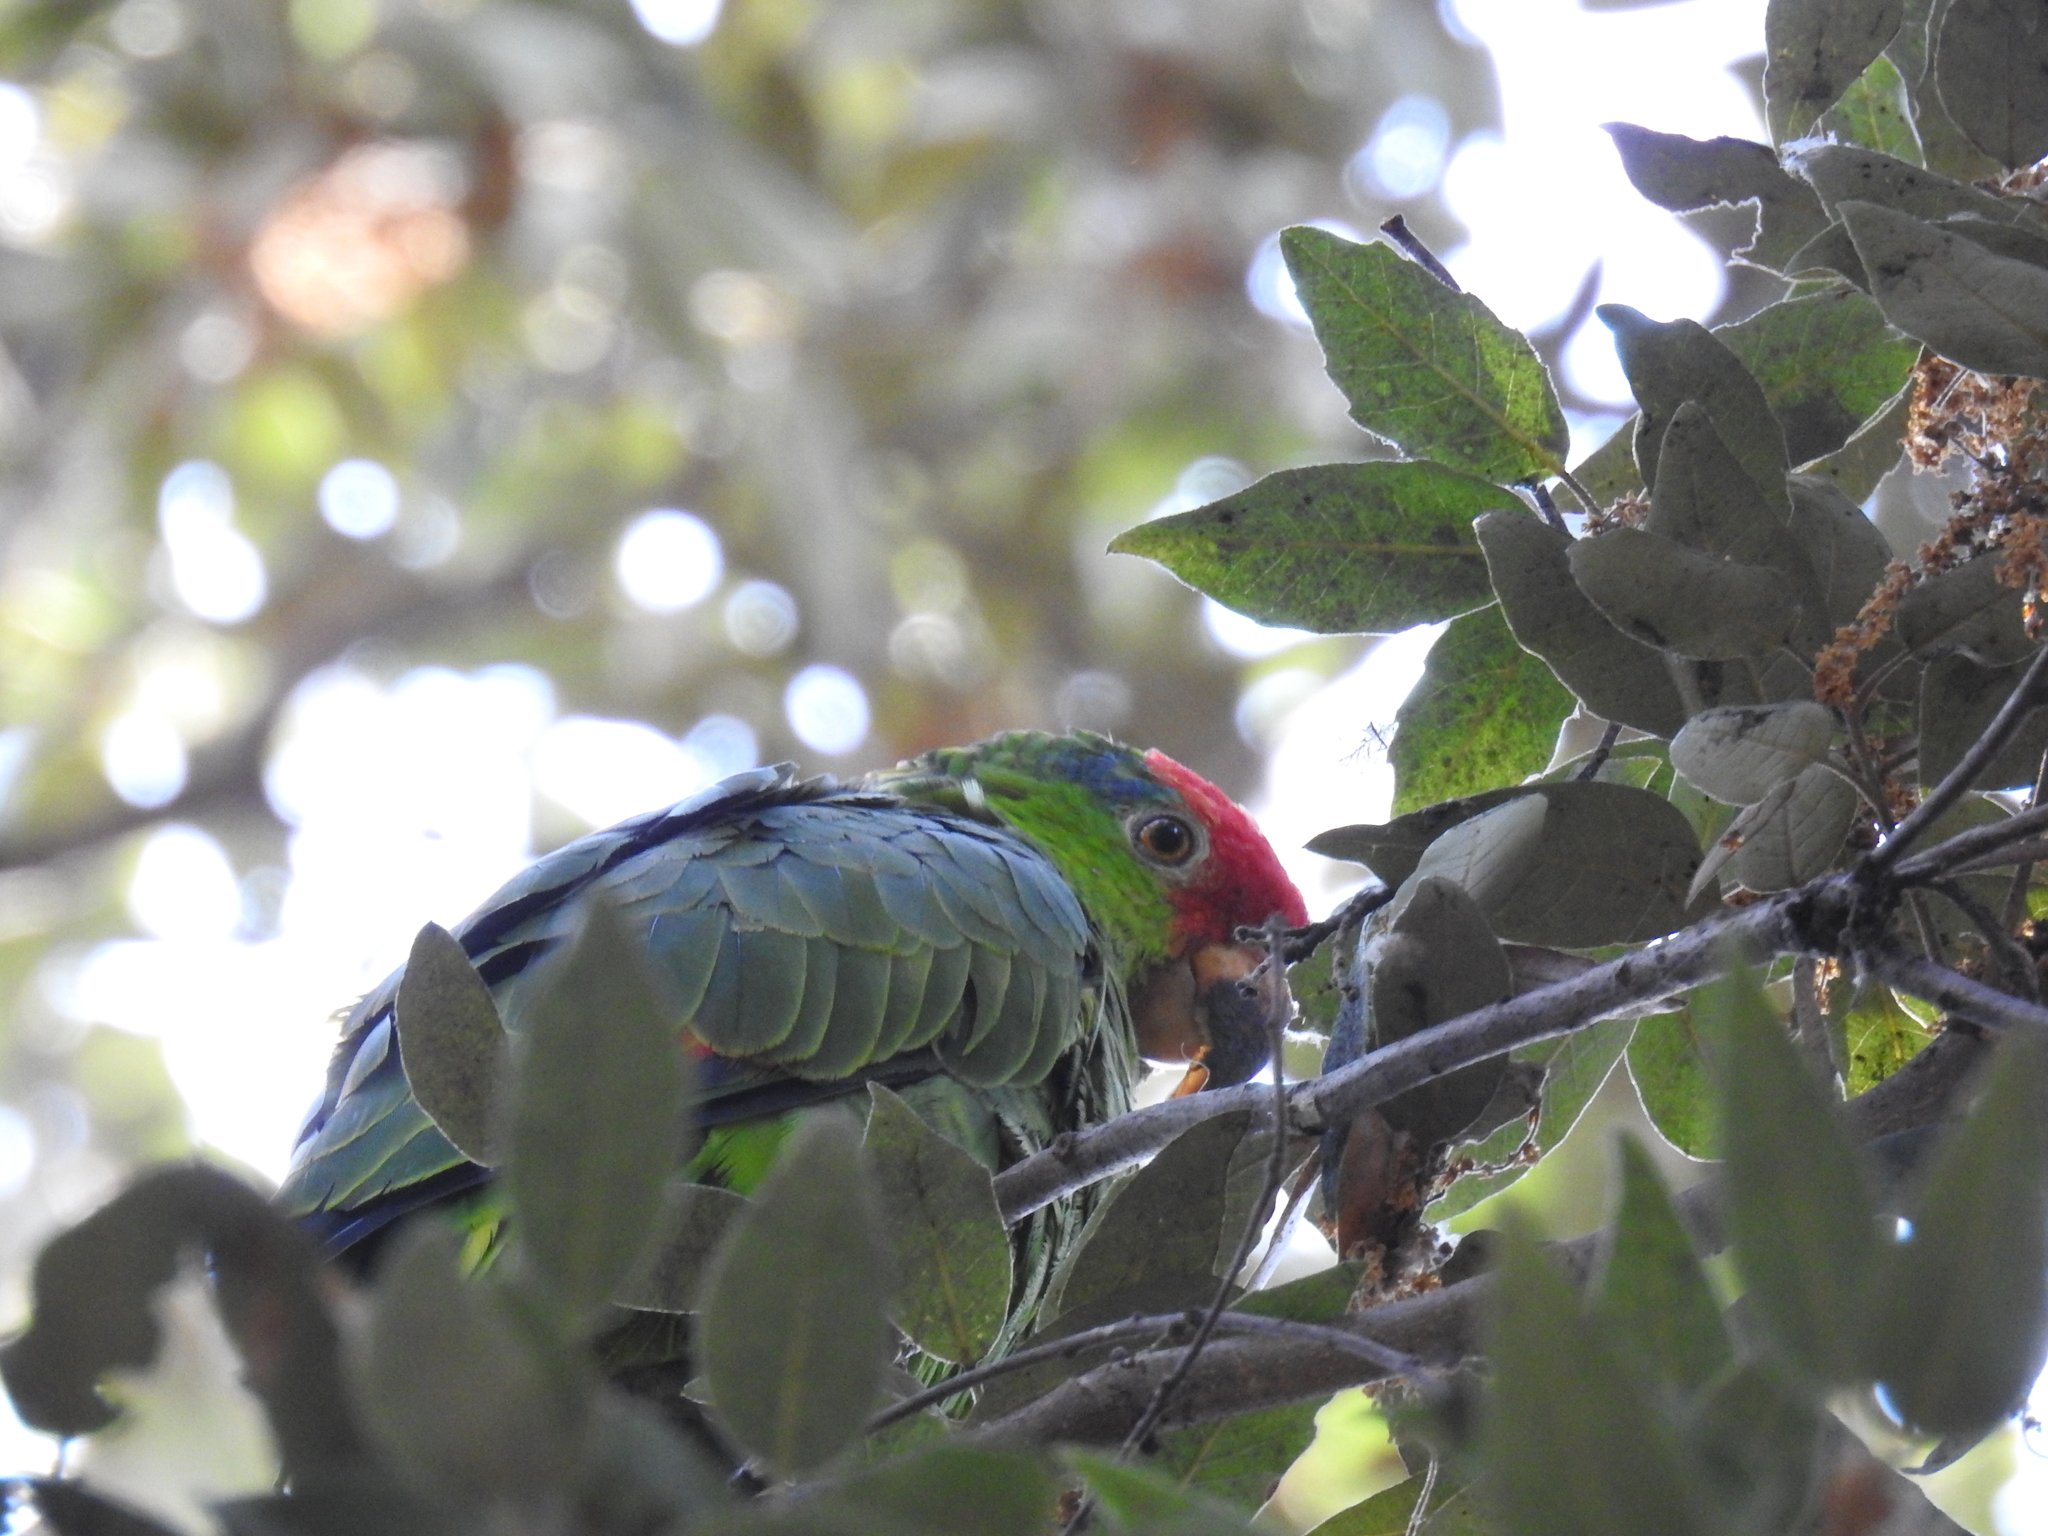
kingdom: Animalia
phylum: Chordata
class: Aves
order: Psittaciformes
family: Psittacidae
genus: Amazona
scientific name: Amazona viridigenalis
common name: Red-crowned amazon
